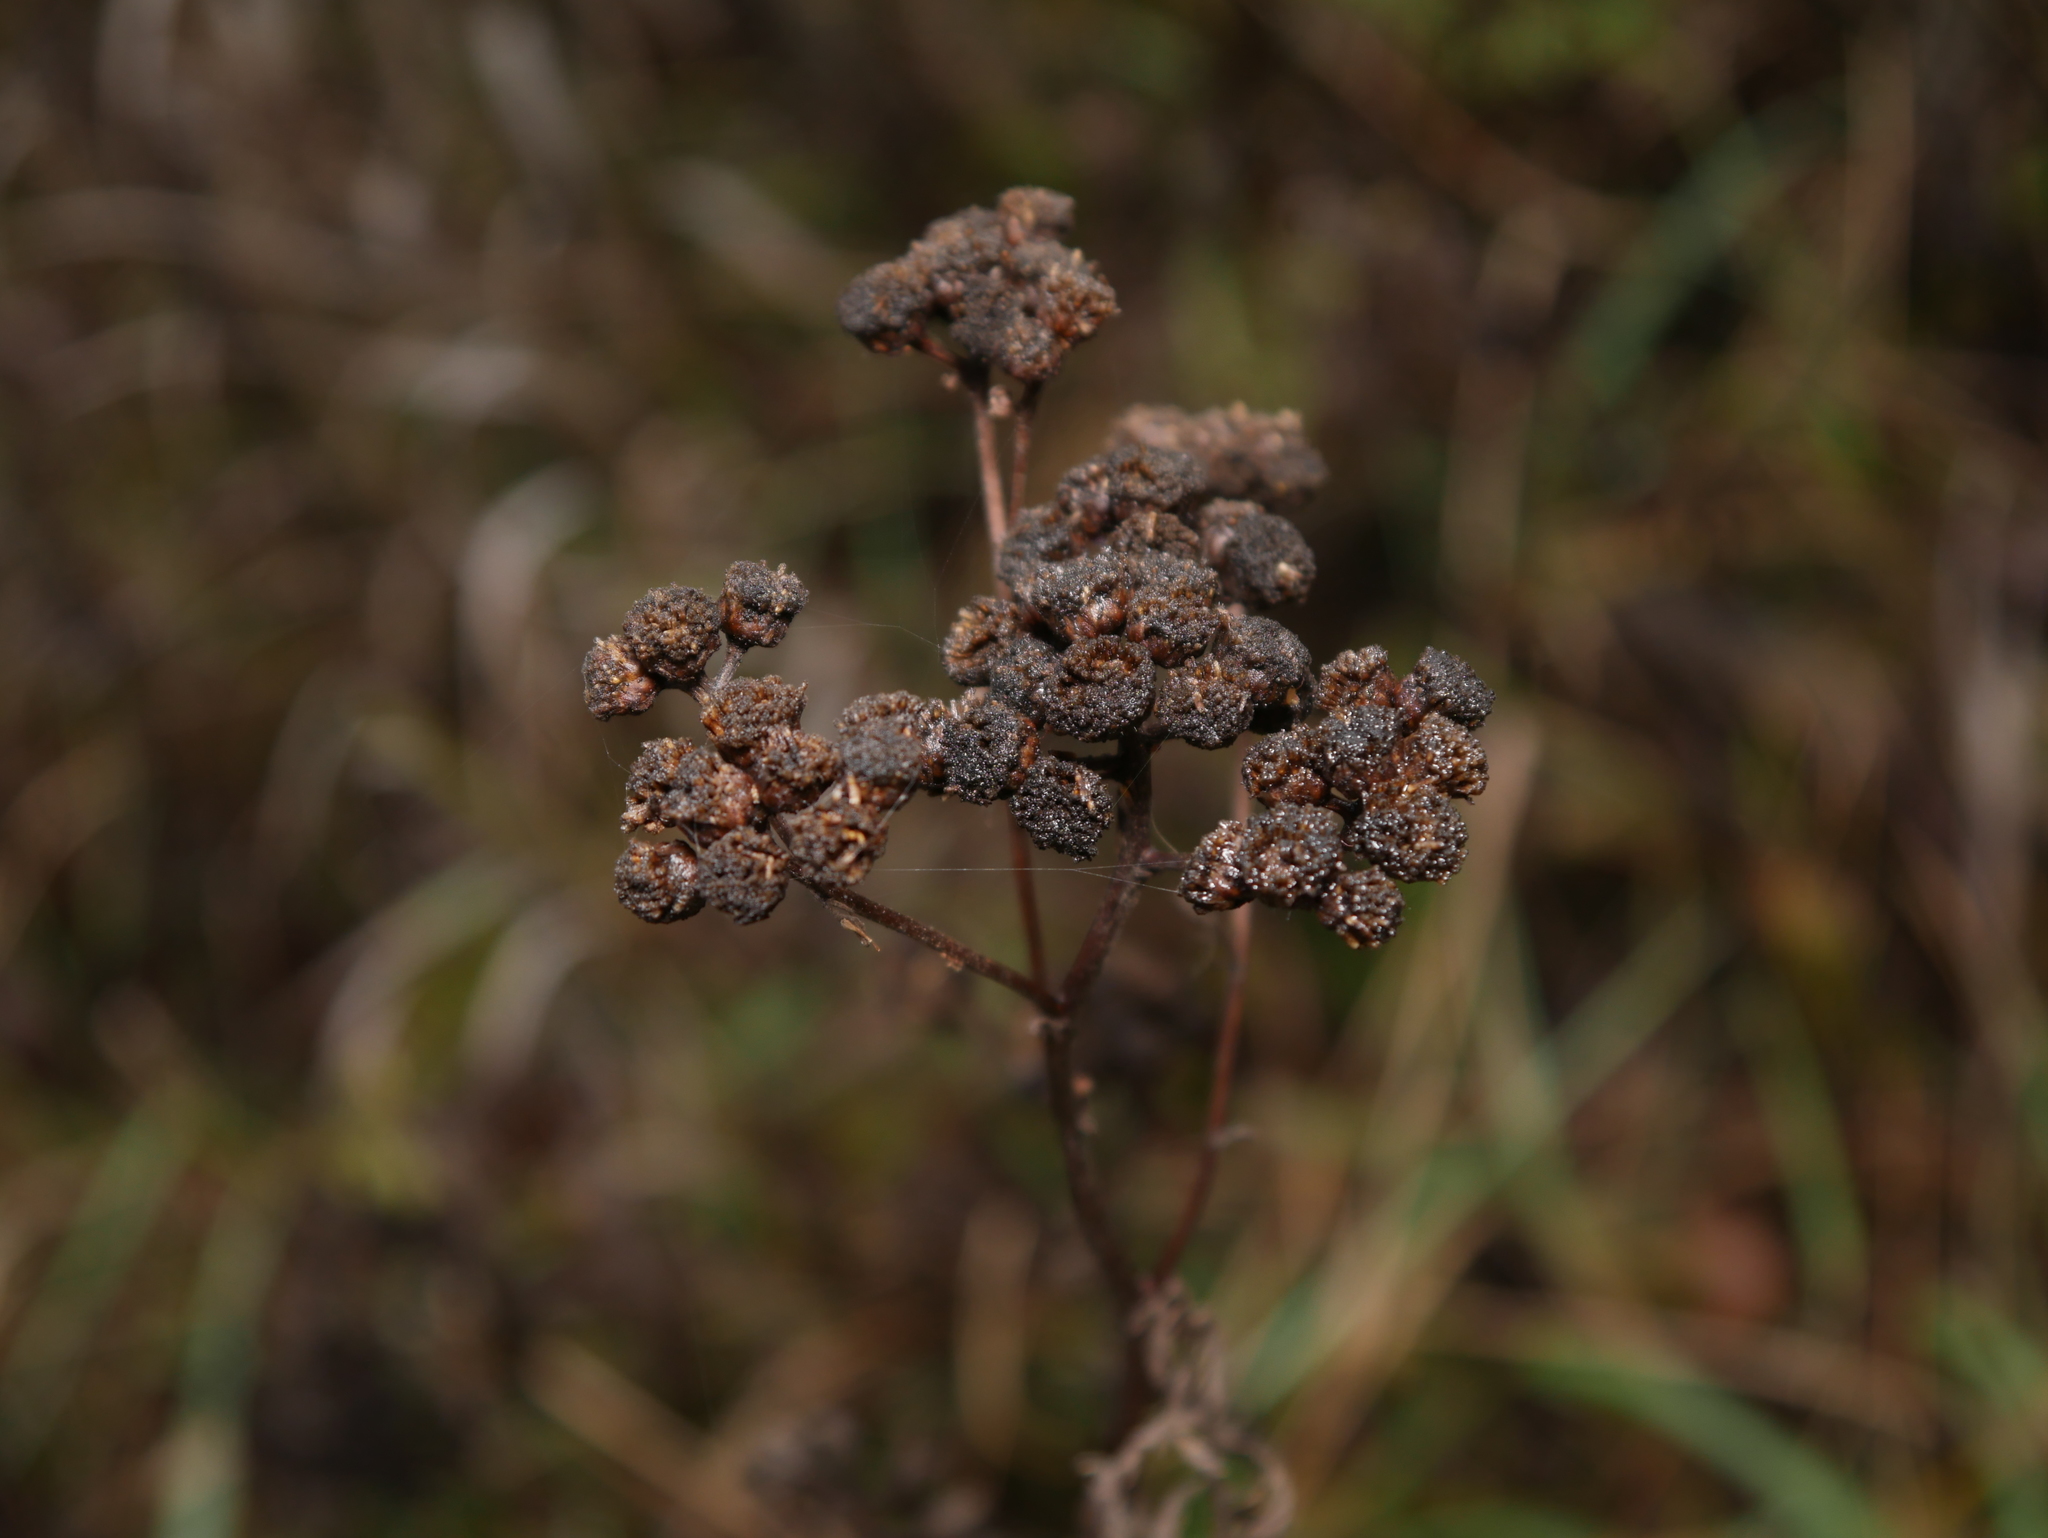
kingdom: Plantae
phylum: Tracheophyta
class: Magnoliopsida
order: Asterales
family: Asteraceae
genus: Tanacetum
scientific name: Tanacetum vulgare
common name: Common tansy
